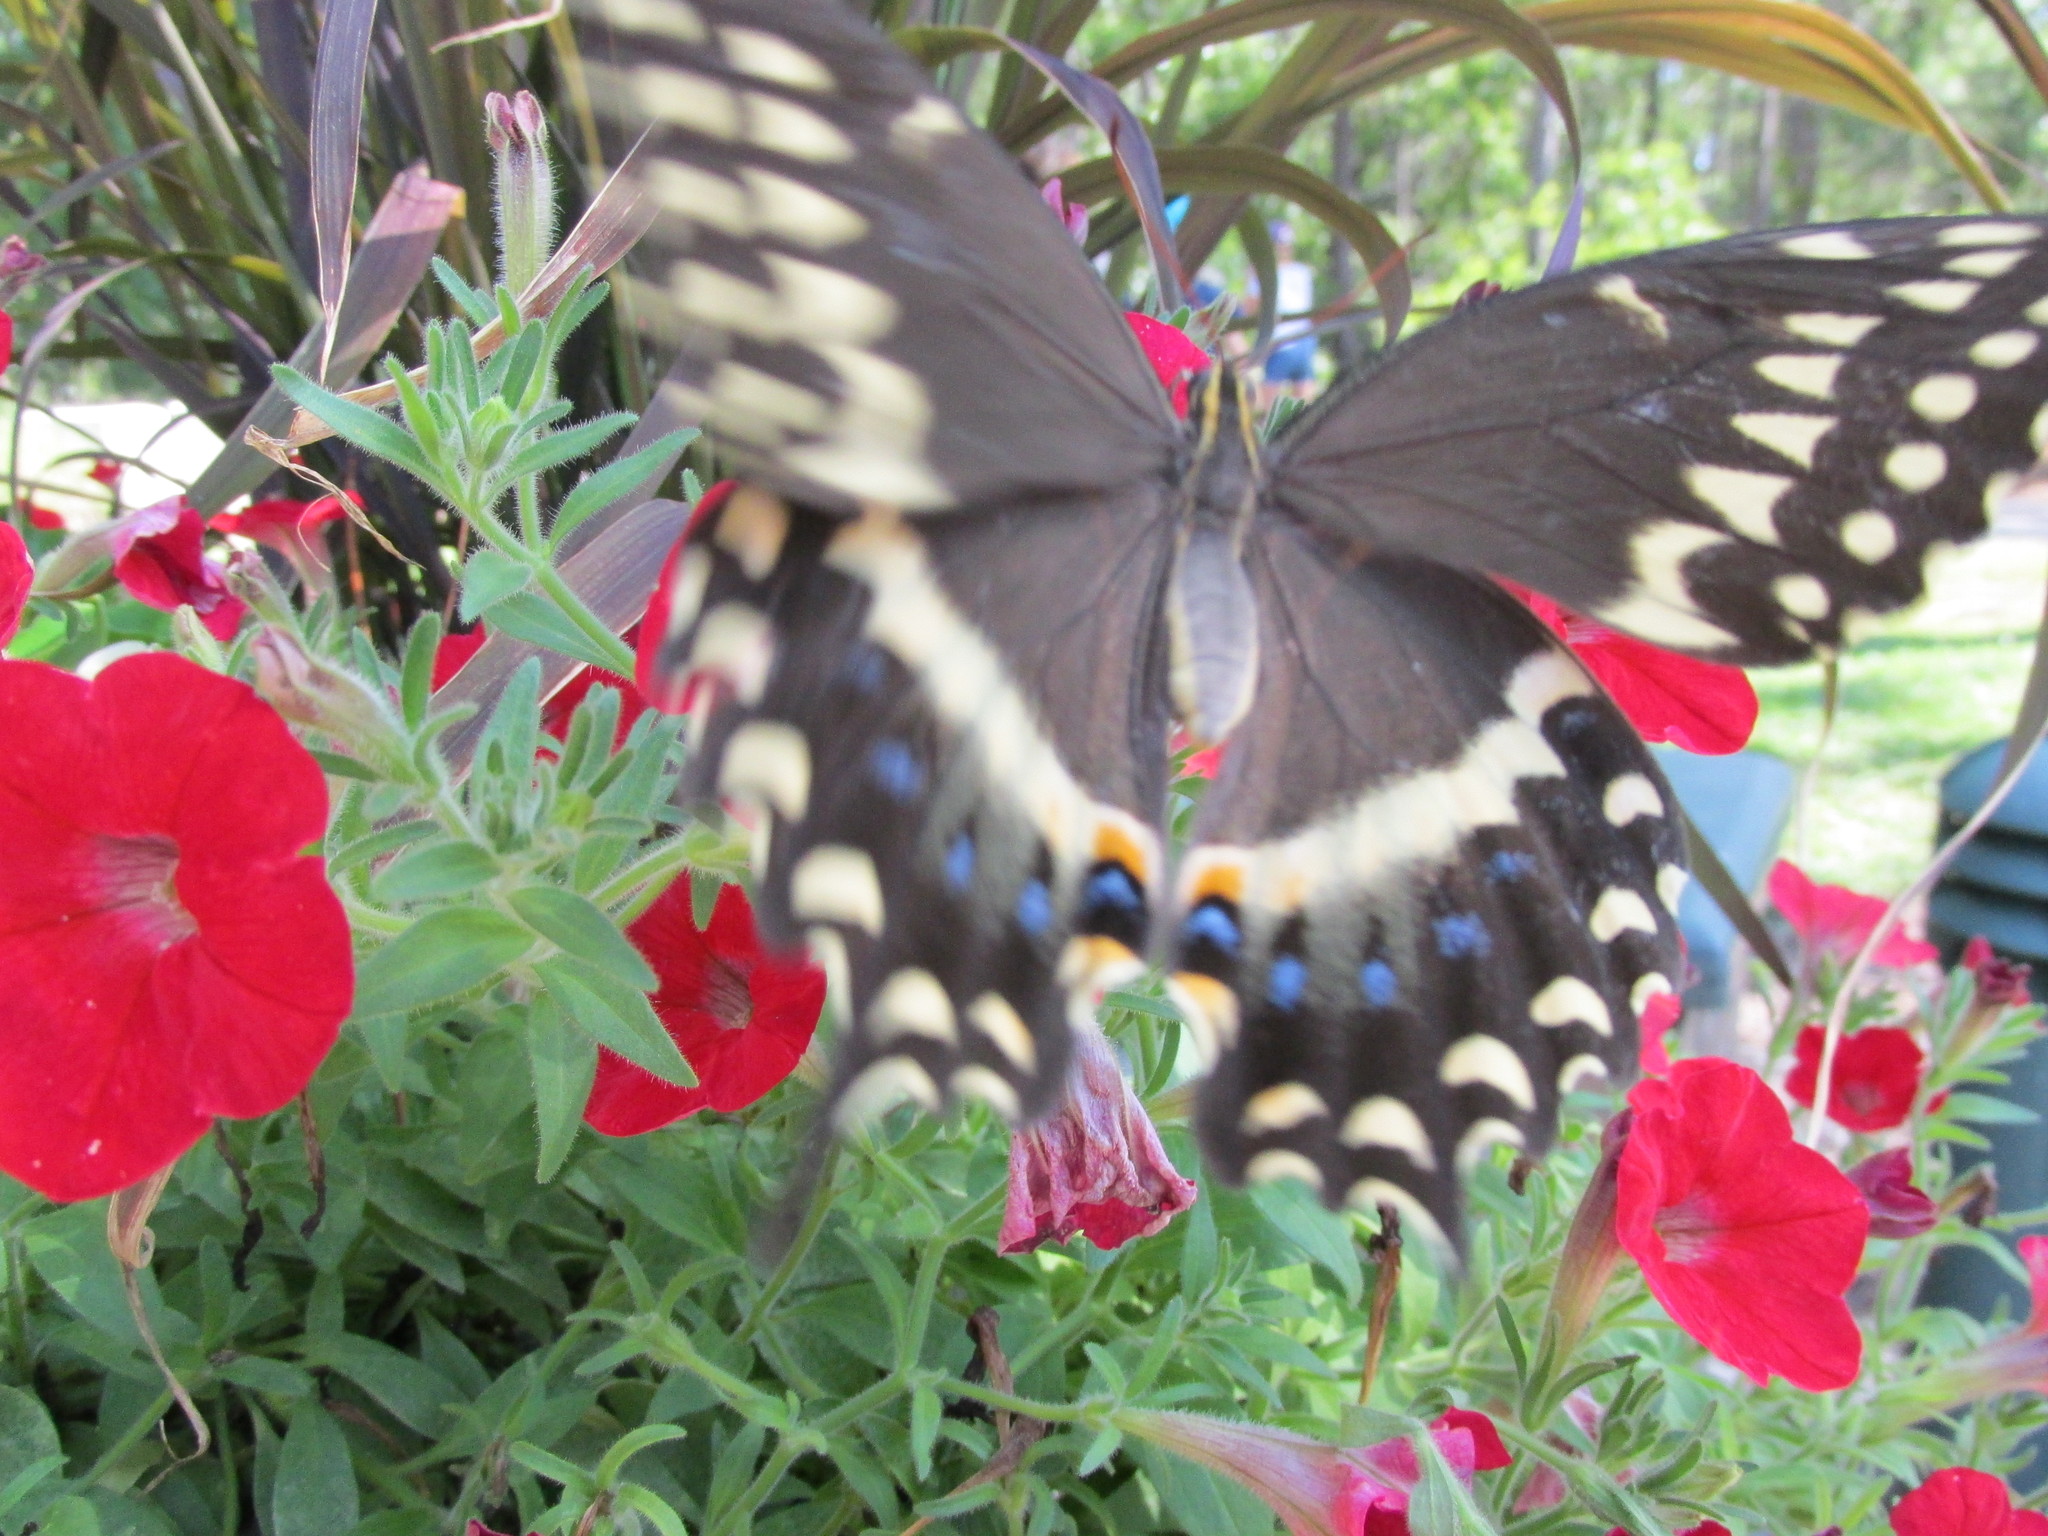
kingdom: Animalia
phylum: Arthropoda
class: Insecta
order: Lepidoptera
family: Papilionidae
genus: Papilio
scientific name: Papilio palamedes
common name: Palamedes swallowtail
